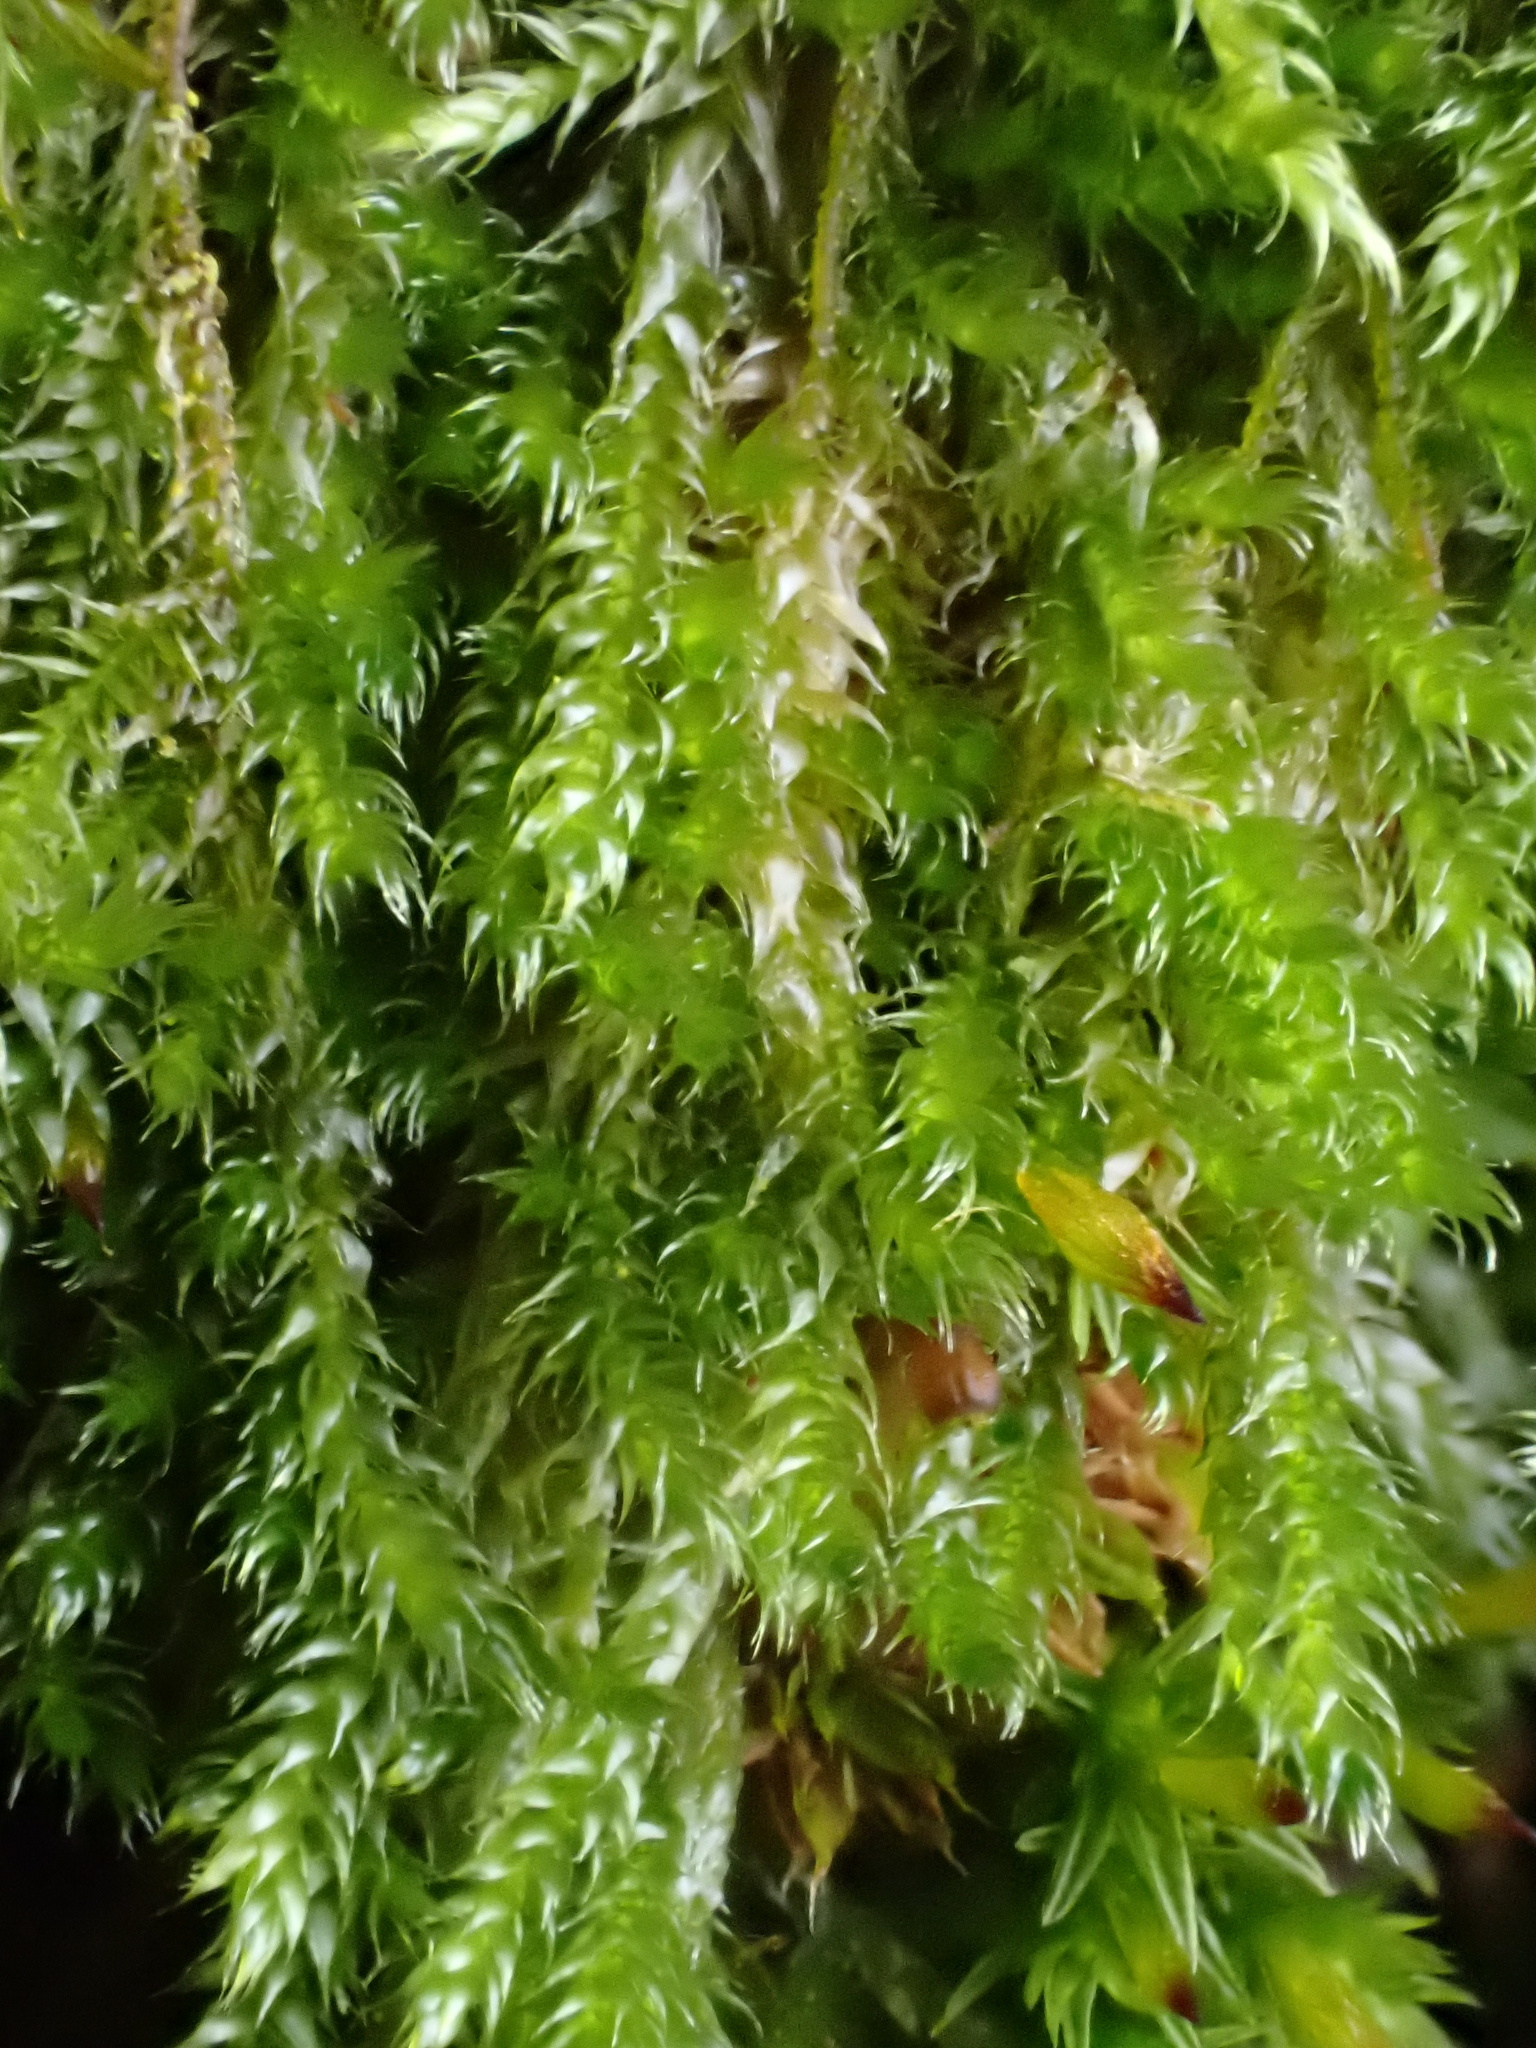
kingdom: Plantae
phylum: Bryophyta
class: Bryopsida
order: Hypnales
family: Hypnaceae
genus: Hypnum
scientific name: Hypnum cupressiforme
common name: Cypress-leaved plait-moss
